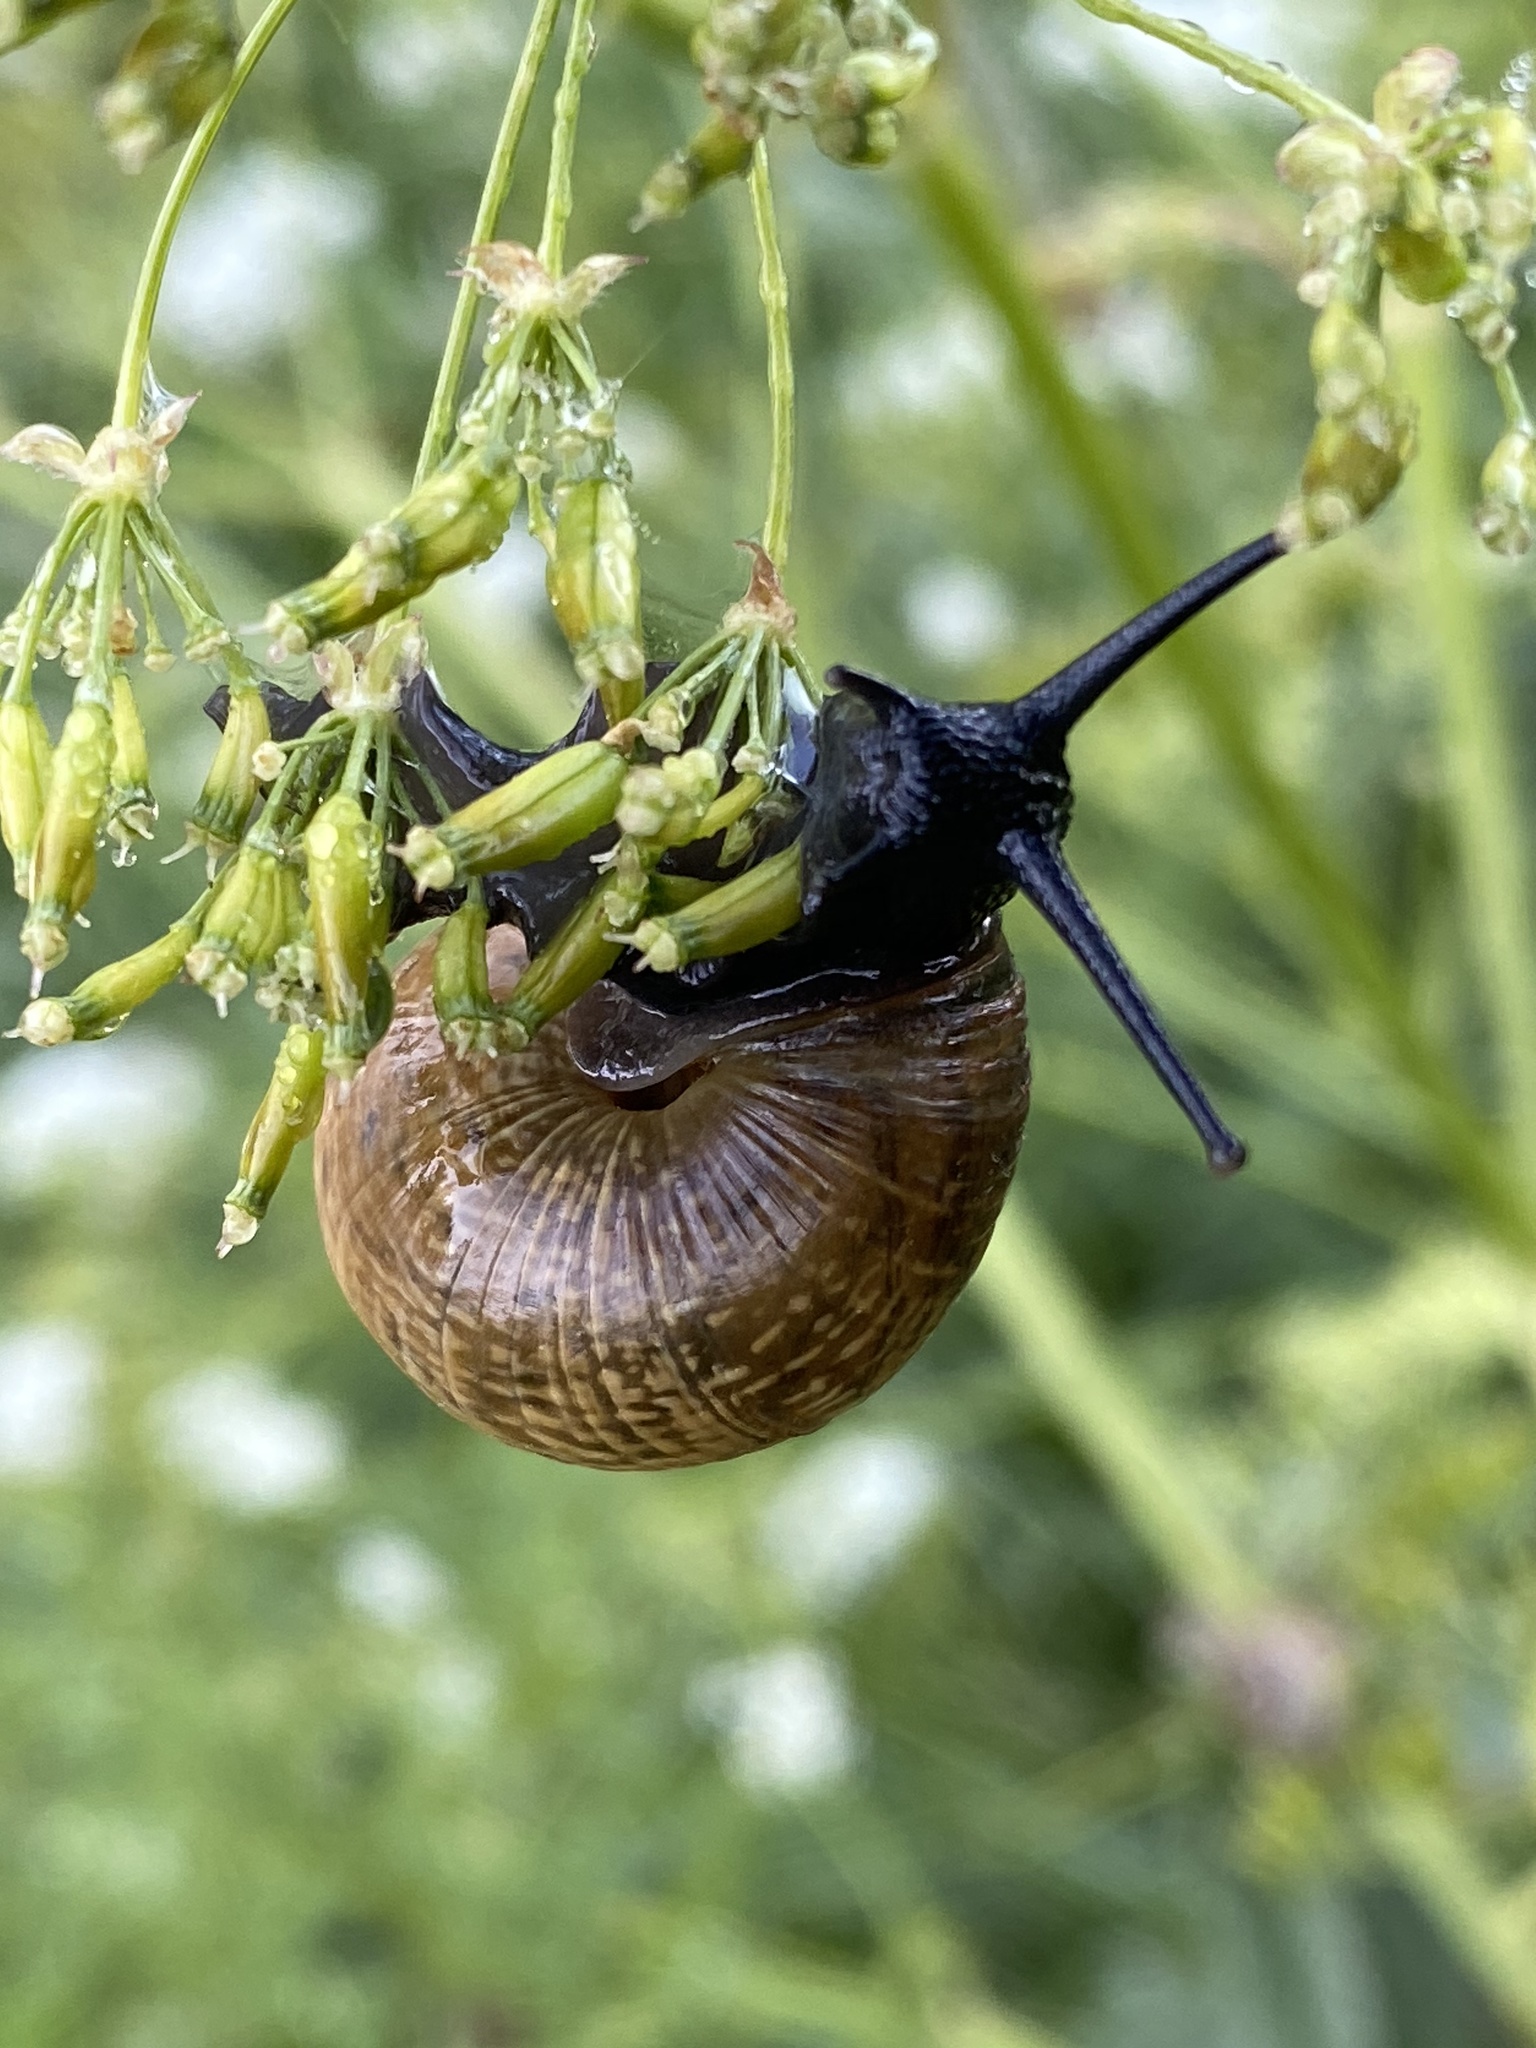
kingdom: Animalia
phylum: Mollusca
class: Gastropoda
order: Stylommatophora
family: Helicidae
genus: Arianta
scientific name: Arianta arbustorum
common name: Copse snail
